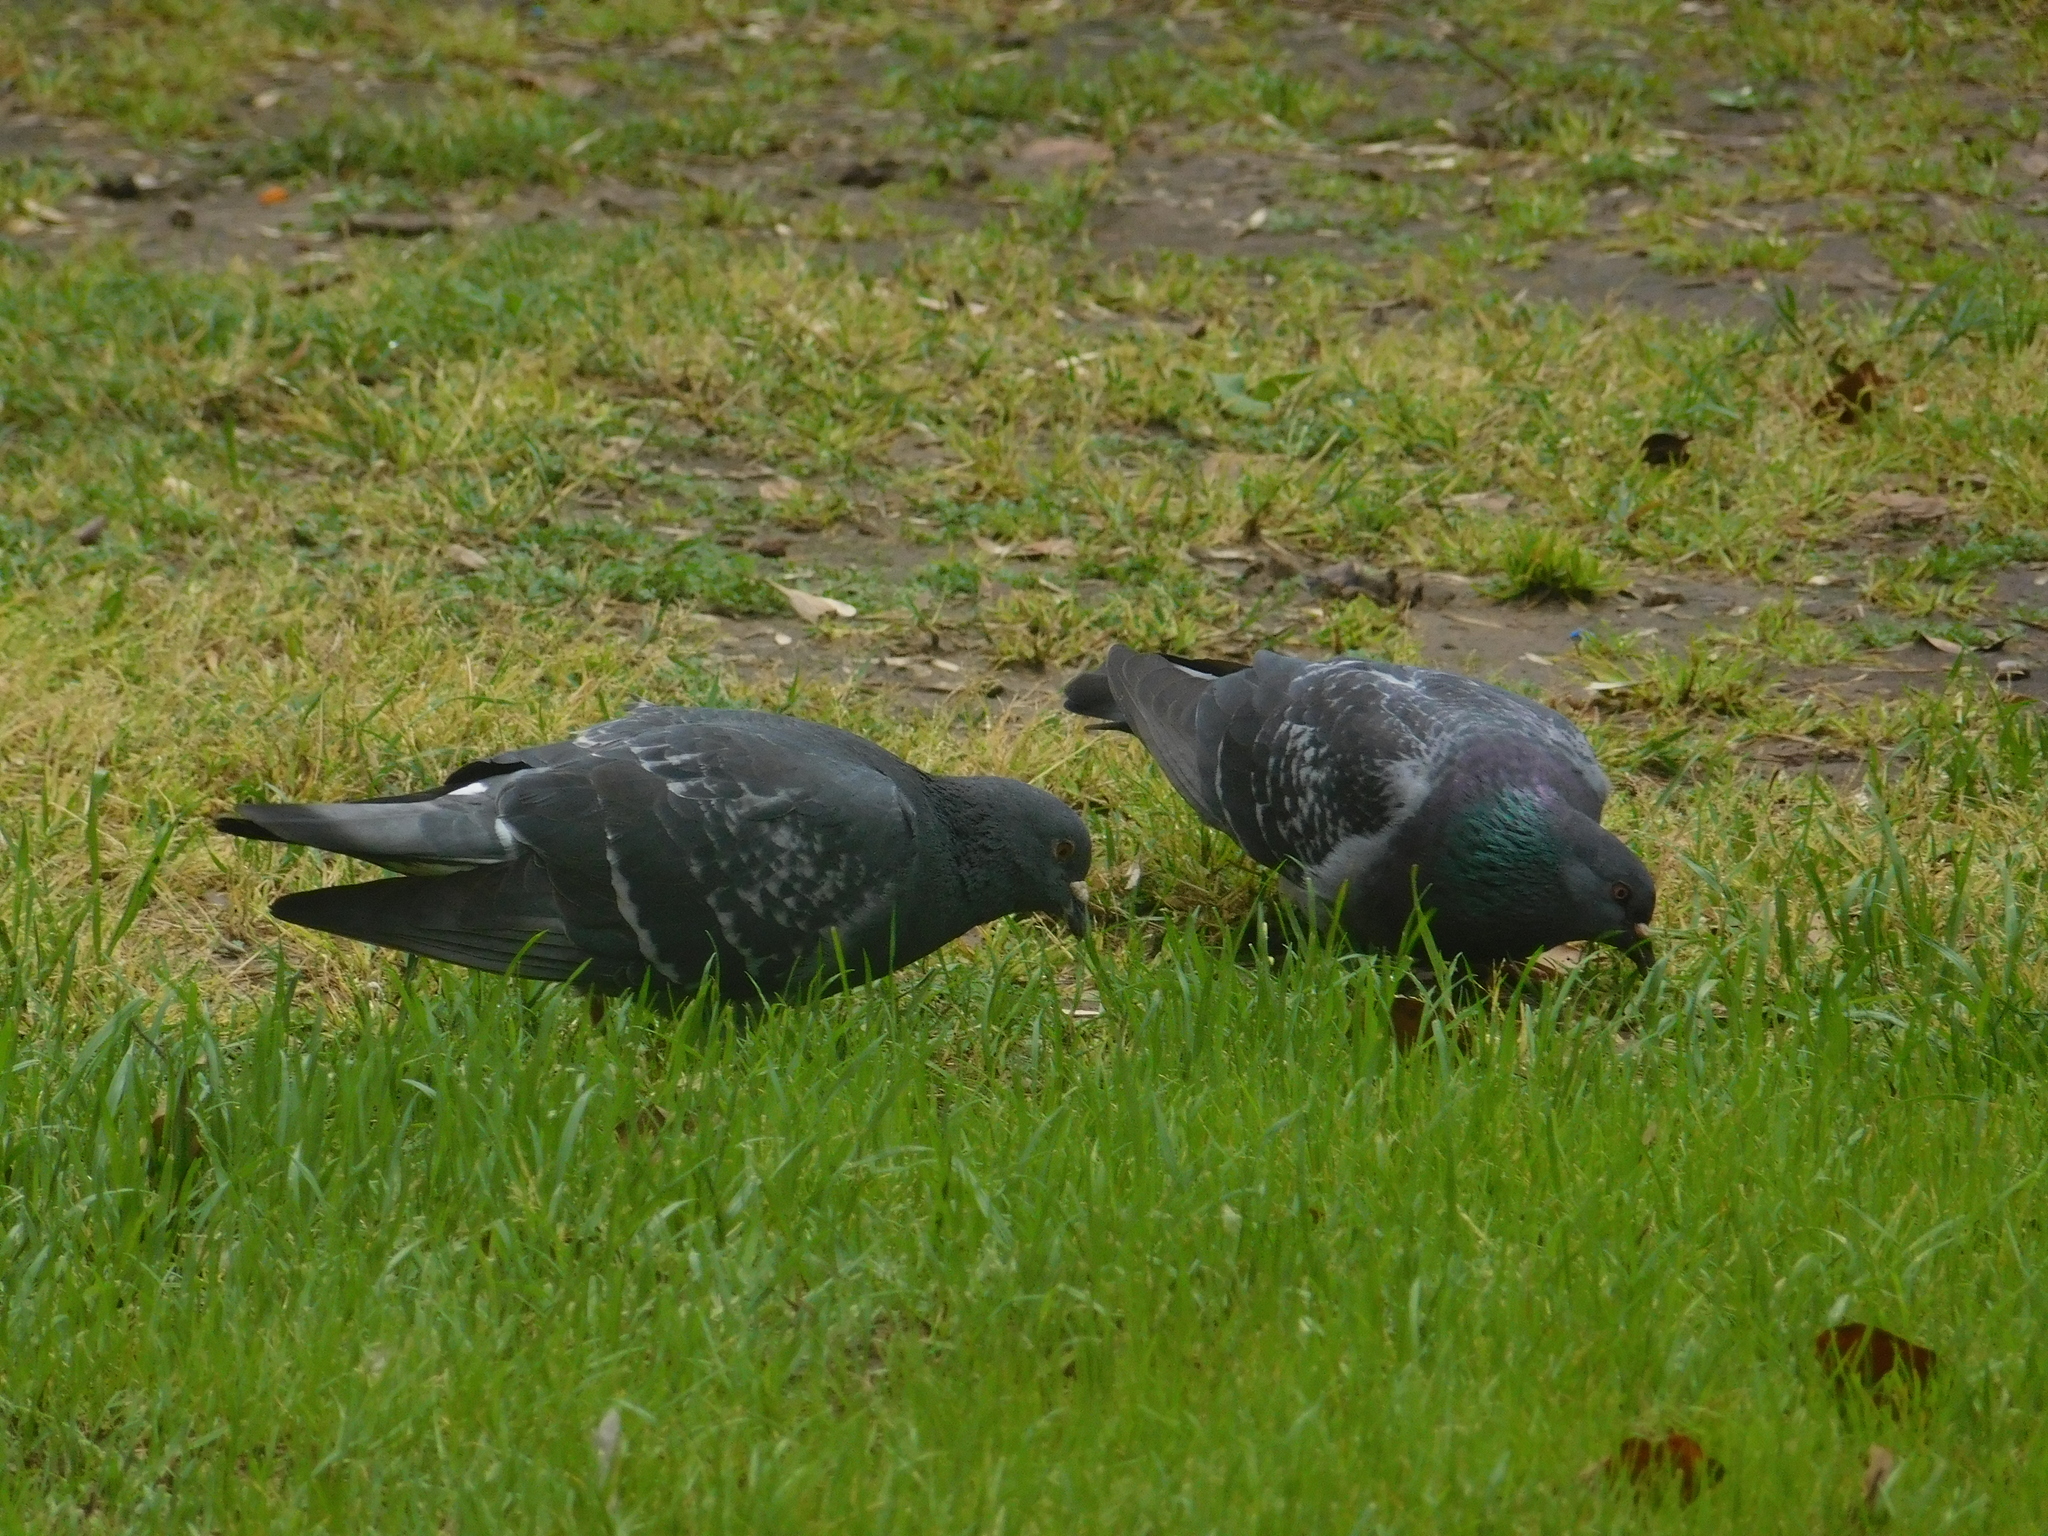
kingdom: Animalia
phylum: Chordata
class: Aves
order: Columbiformes
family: Columbidae
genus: Columba
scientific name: Columba livia
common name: Rock pigeon
